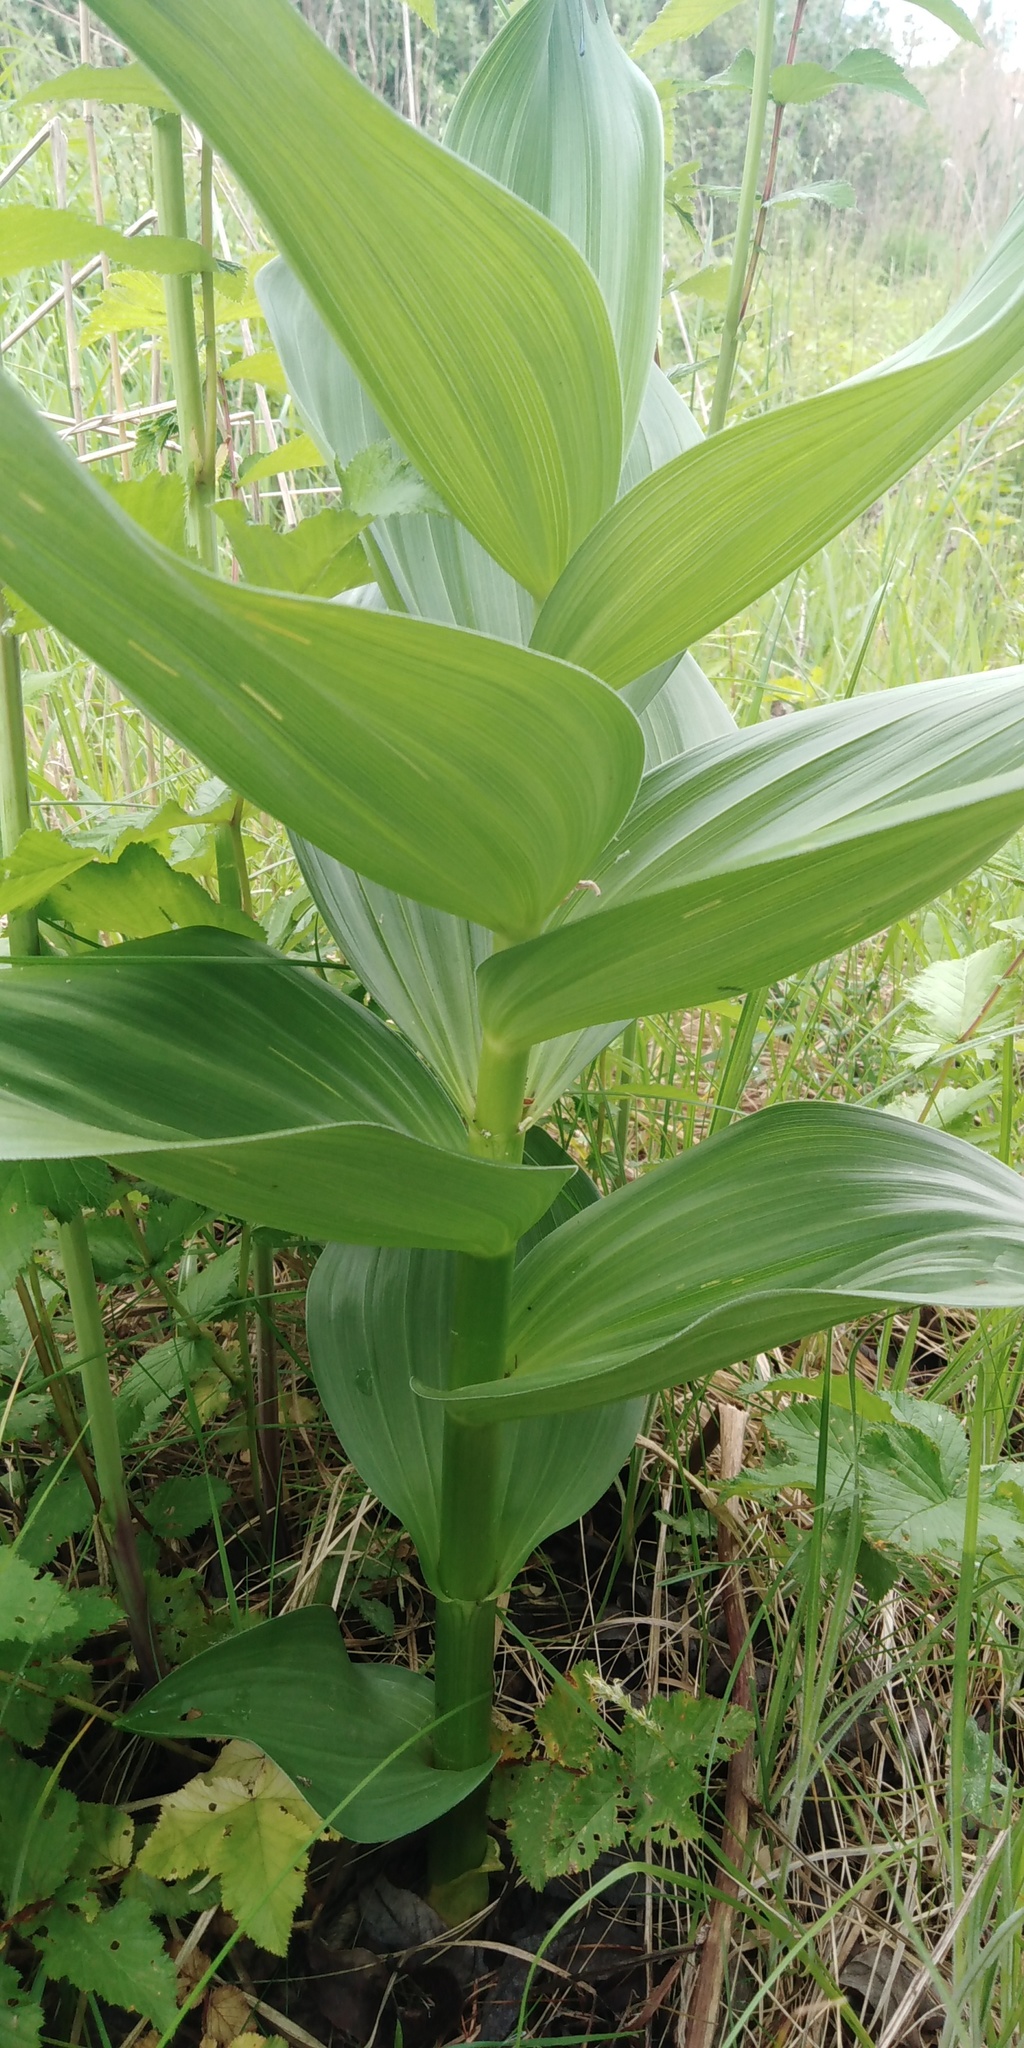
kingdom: Plantae
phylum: Tracheophyta
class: Liliopsida
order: Liliales
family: Melanthiaceae
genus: Veratrum
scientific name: Veratrum lobelianum
